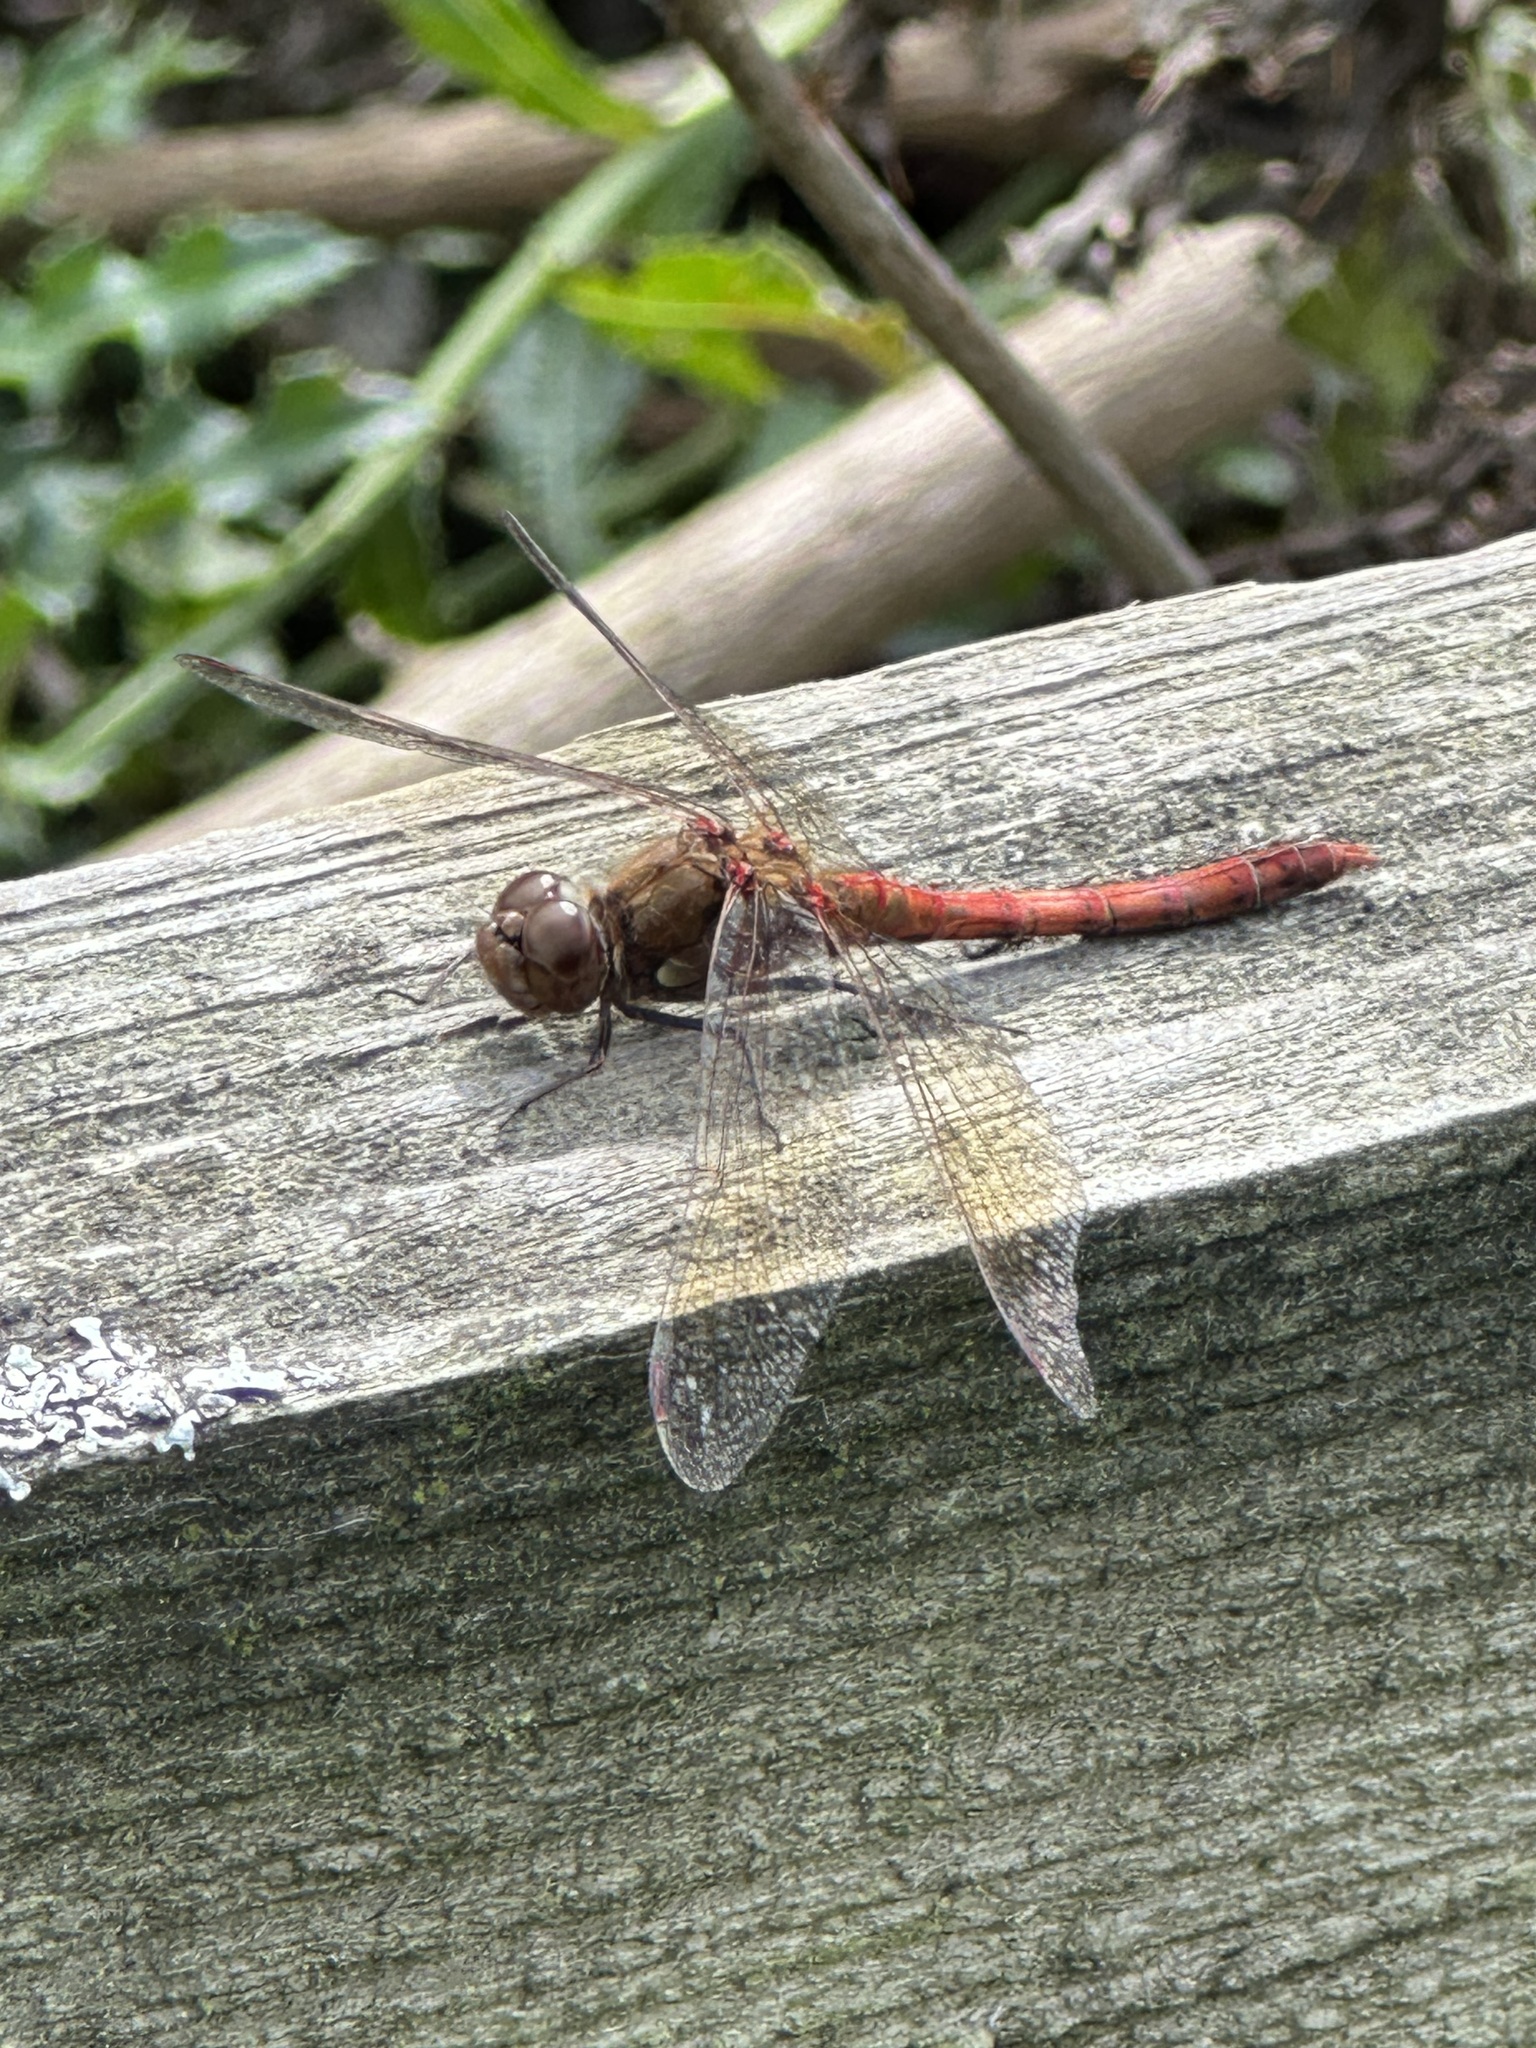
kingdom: Animalia
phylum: Arthropoda
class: Insecta
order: Odonata
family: Libellulidae
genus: Sympetrum
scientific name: Sympetrum striolatum
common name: Common darter
